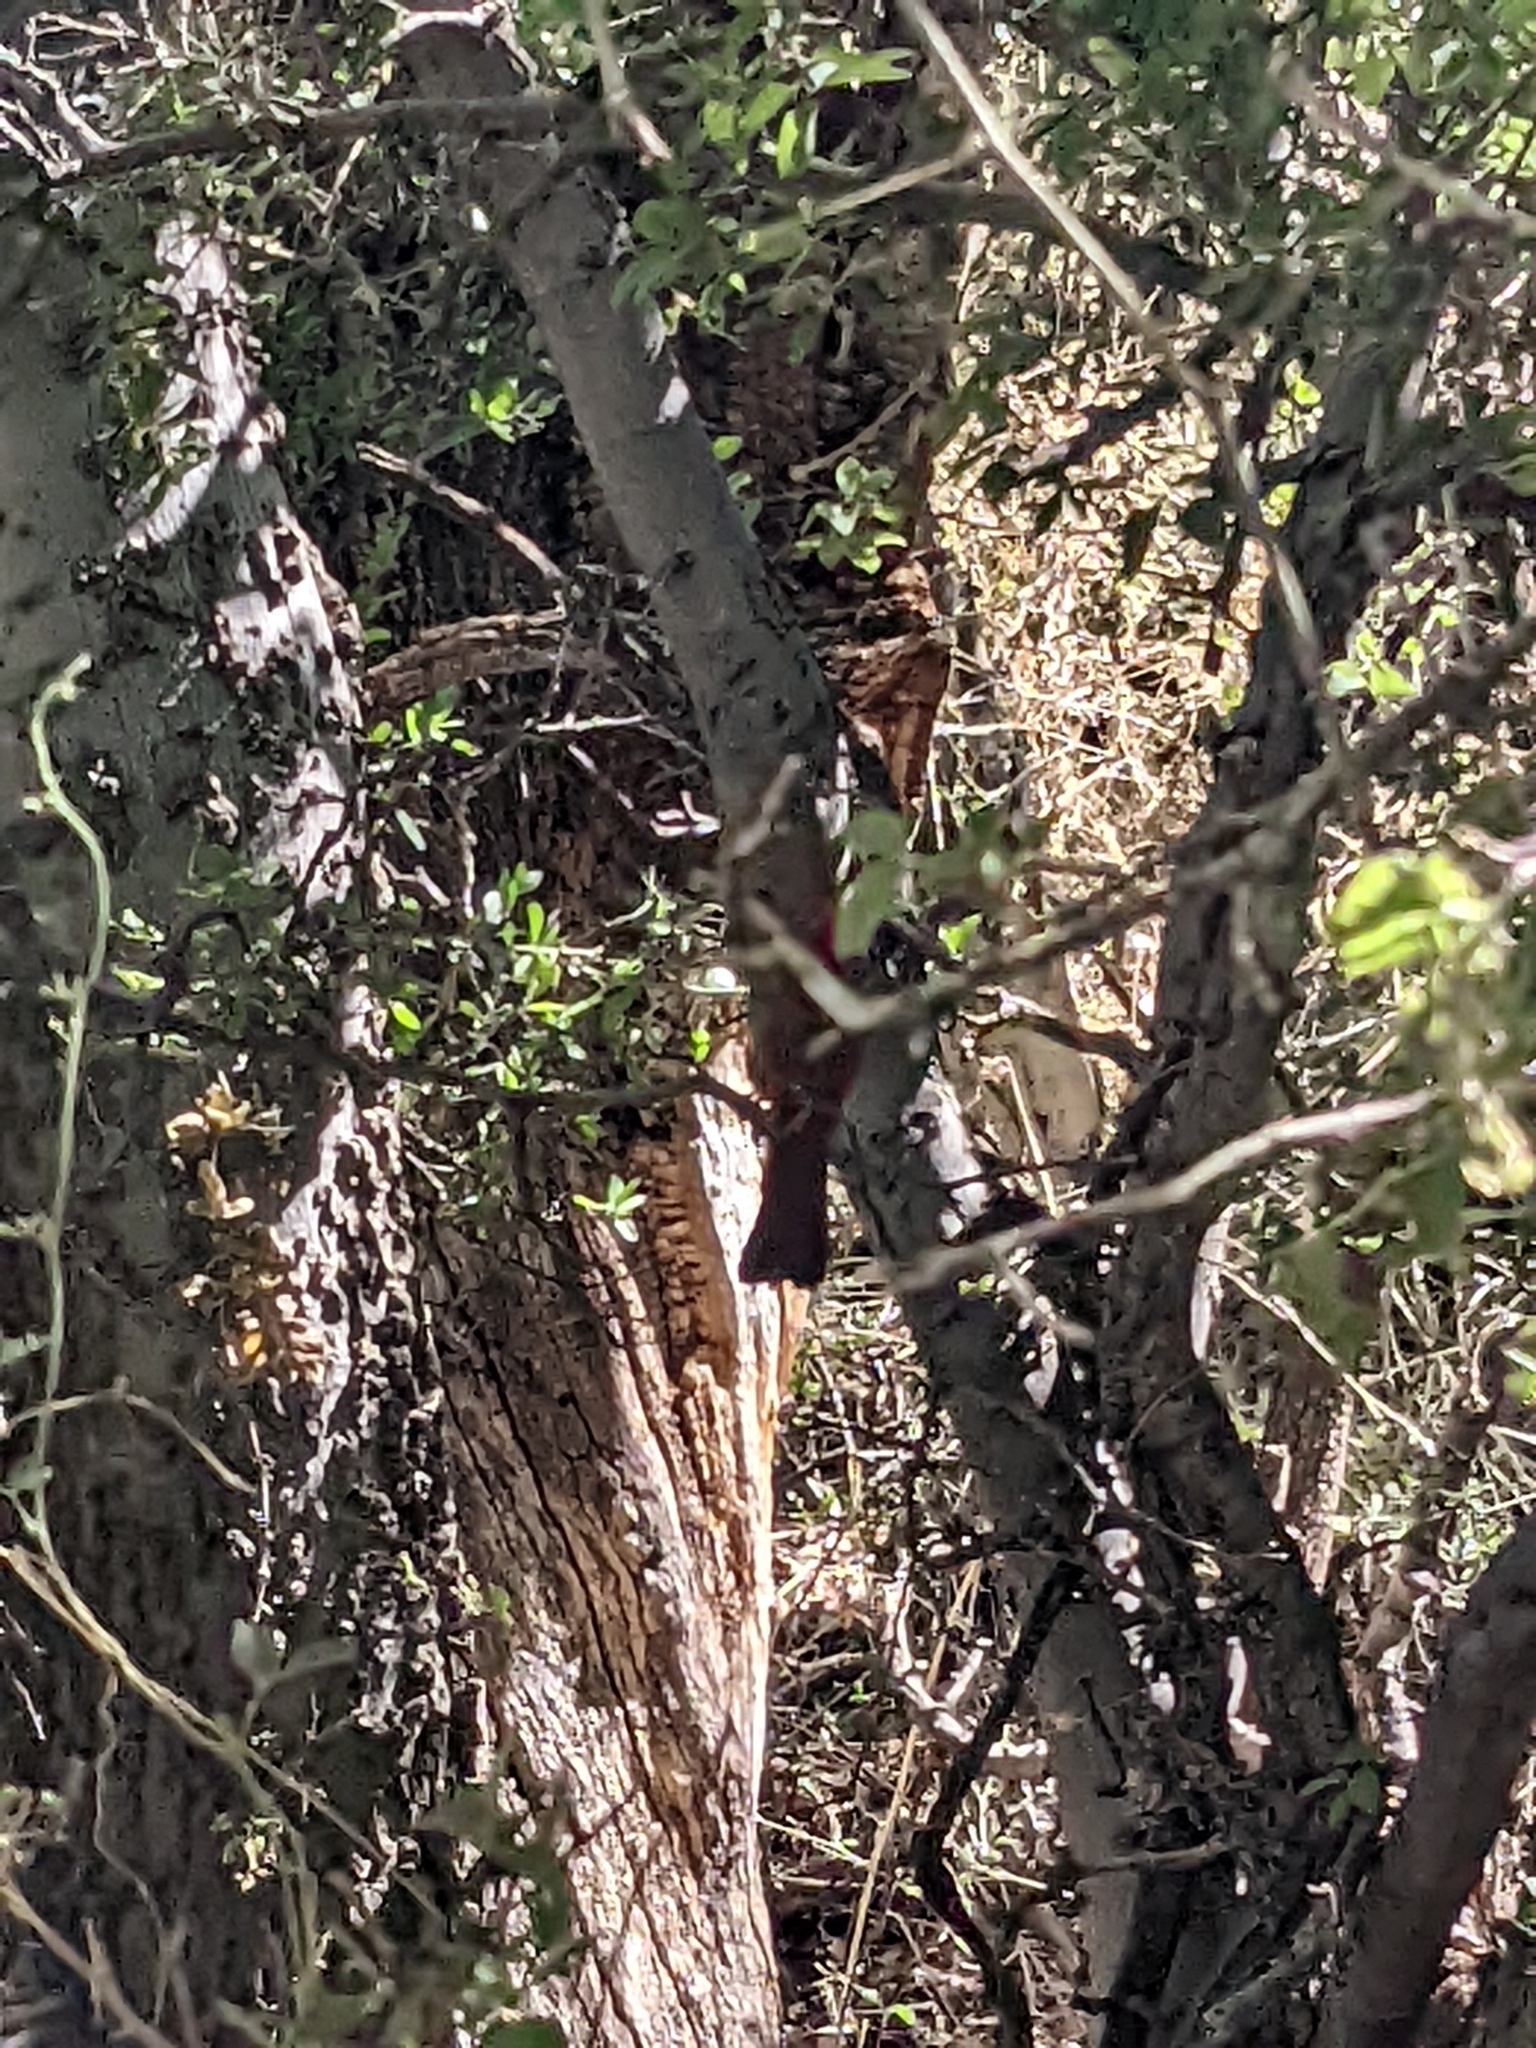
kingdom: Animalia
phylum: Chordata
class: Aves
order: Passeriformes
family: Cardinalidae
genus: Cardinalis
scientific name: Cardinalis cardinalis
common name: Northern cardinal
